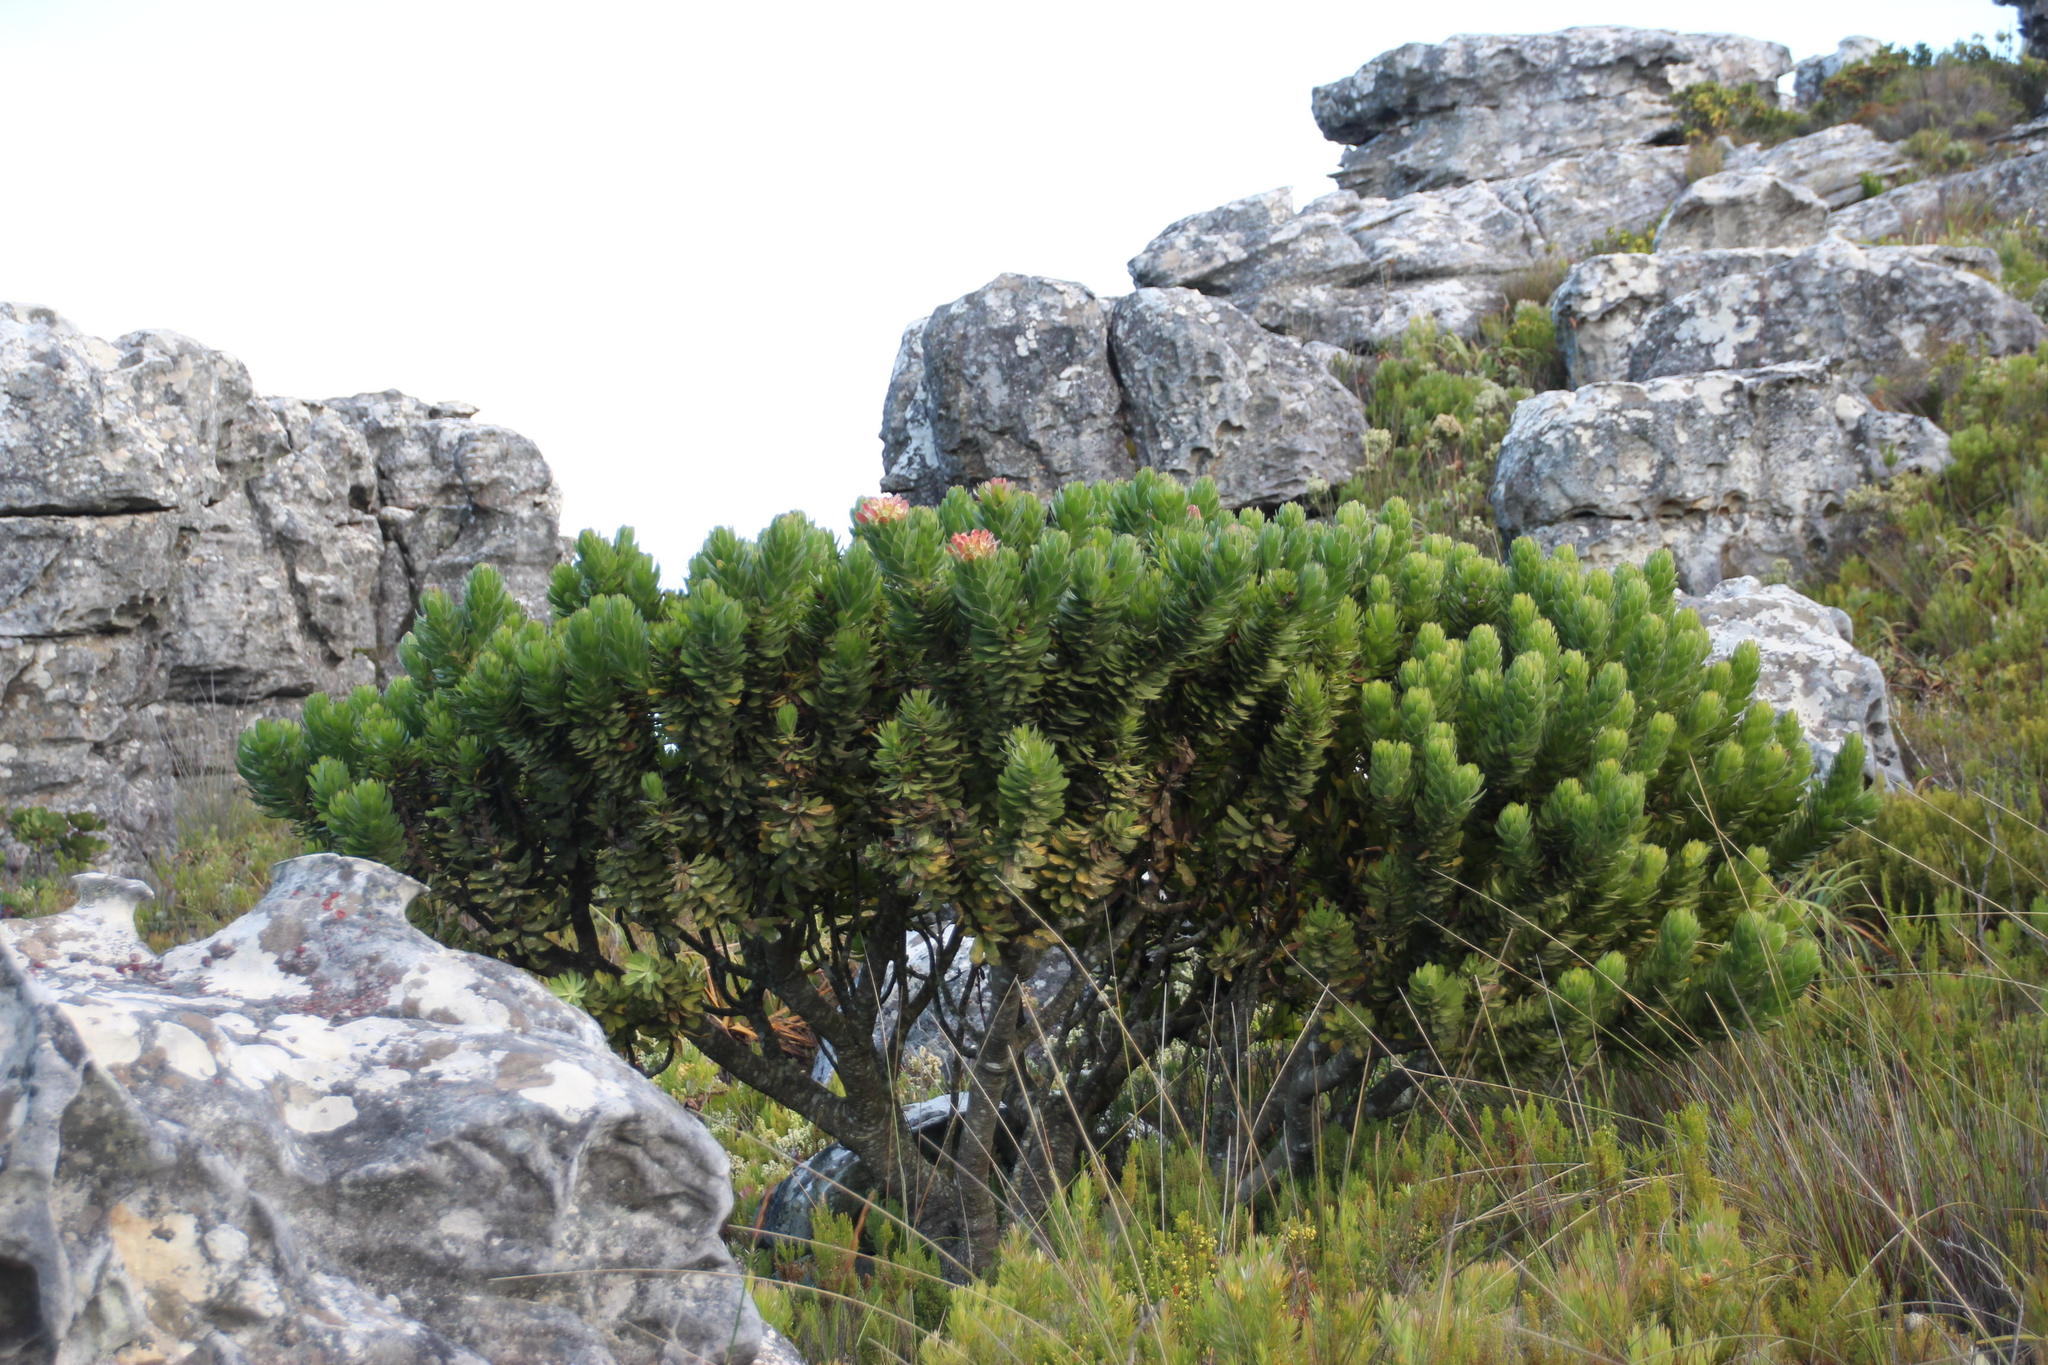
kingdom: Plantae
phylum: Tracheophyta
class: Magnoliopsida
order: Proteales
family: Proteaceae
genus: Mimetes
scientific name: Mimetes fimbriifolius
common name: Fringed bottlebrush
